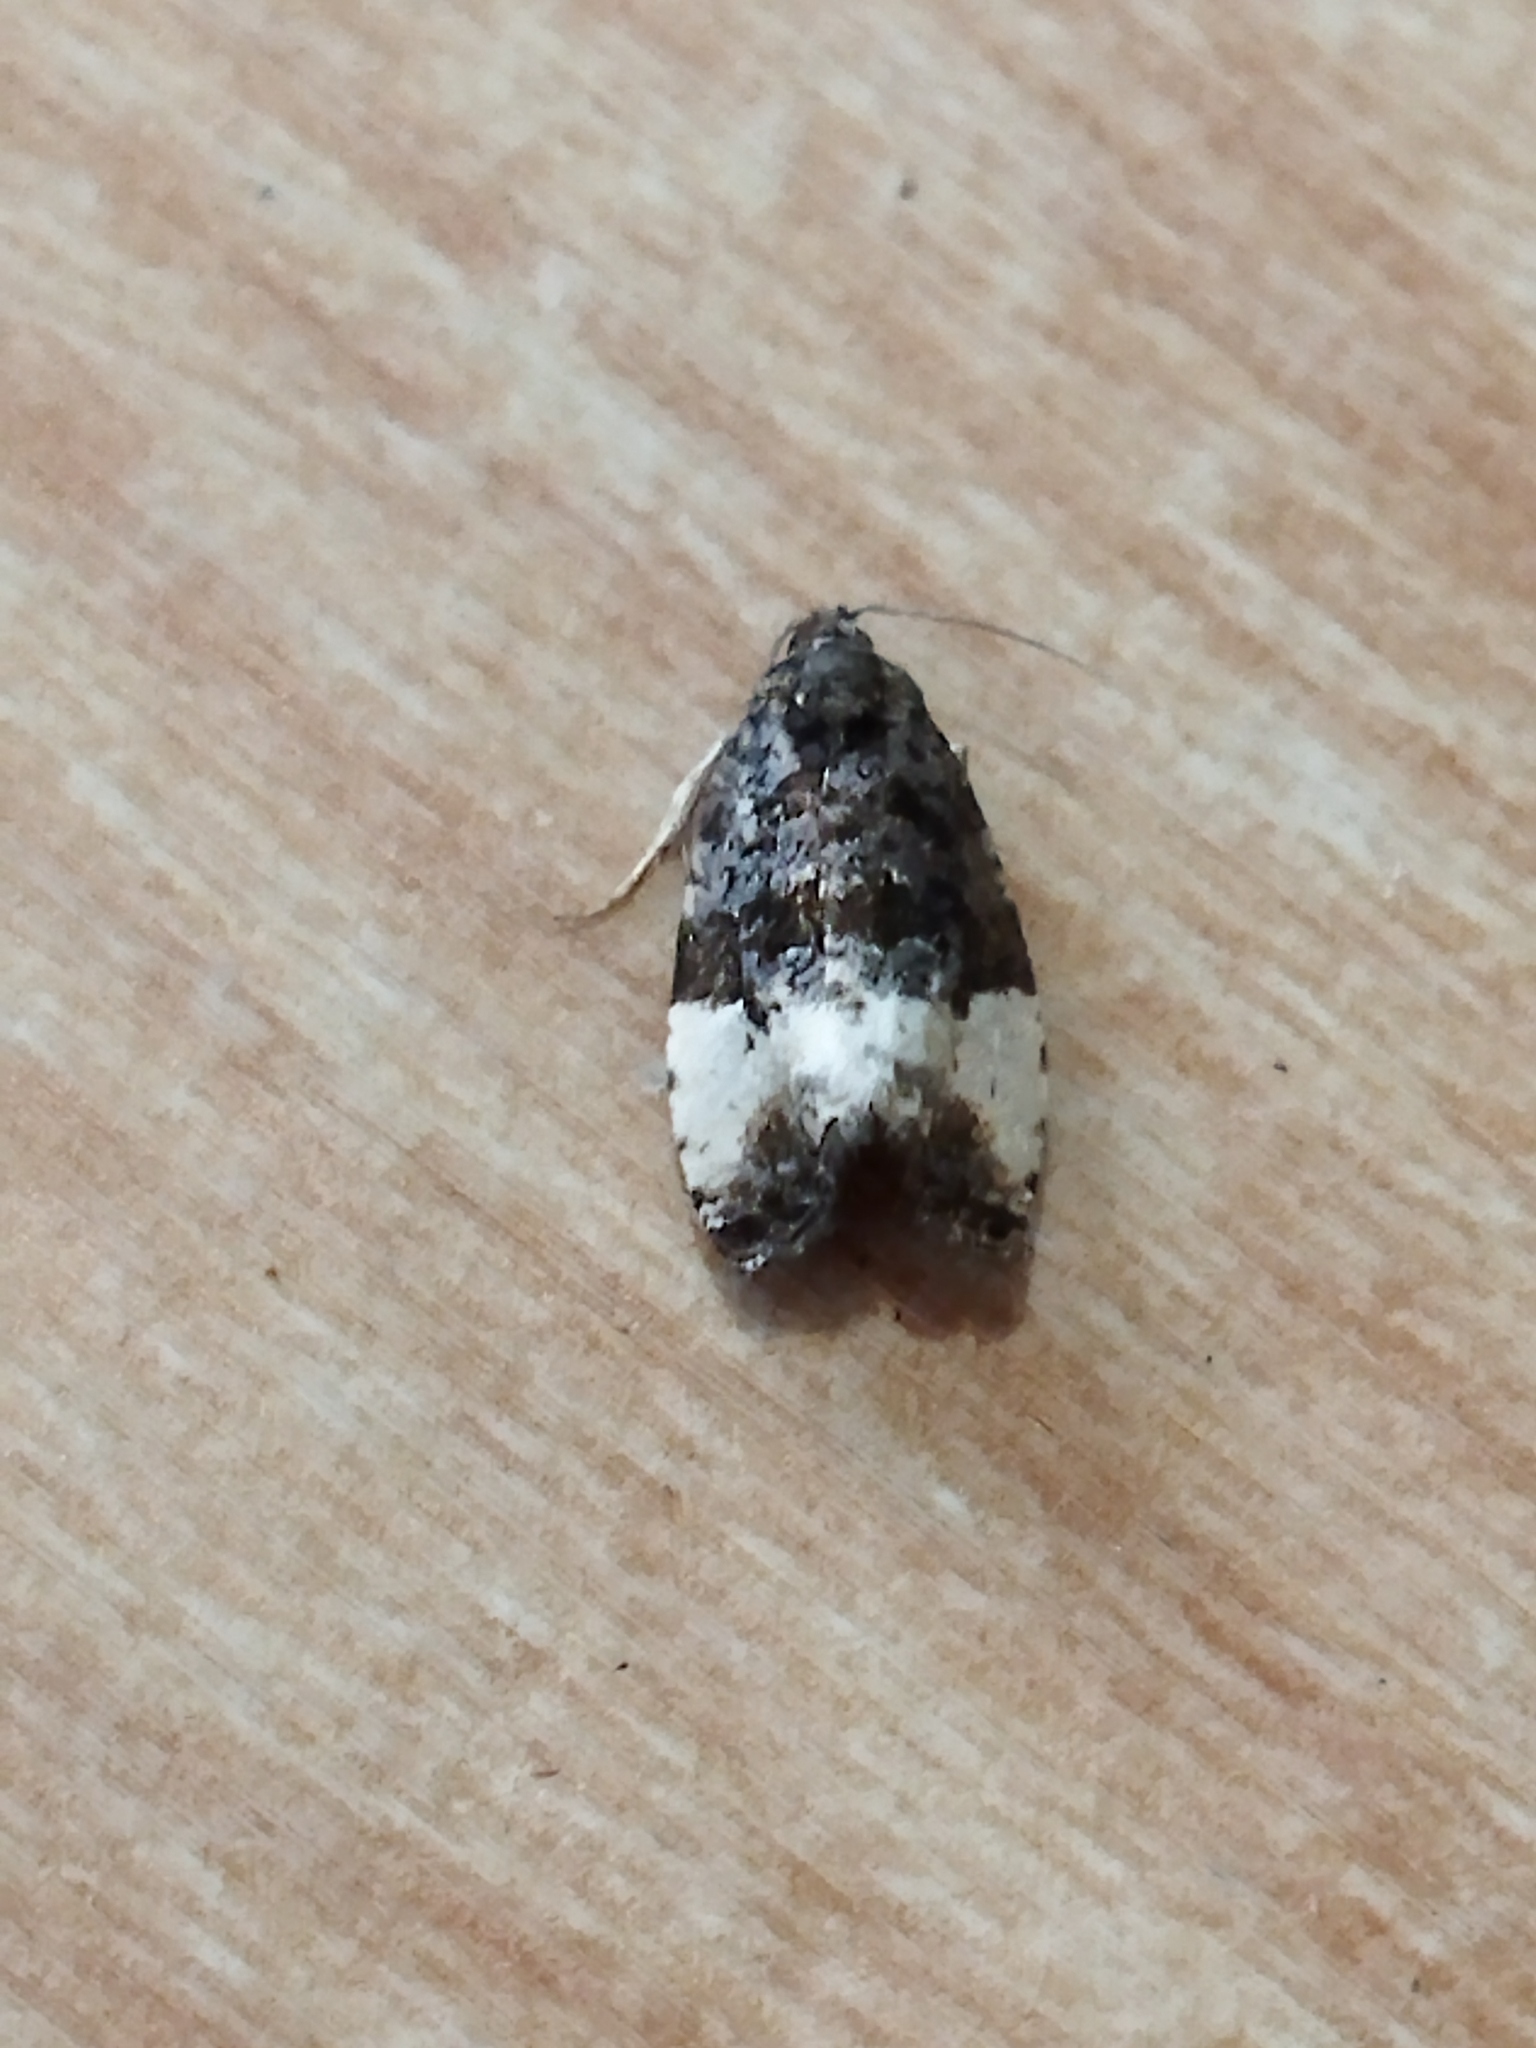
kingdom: Animalia
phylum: Arthropoda
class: Insecta
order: Lepidoptera
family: Tortricidae
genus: Hedya
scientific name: Hedya pruniana
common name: Plum tortrix
